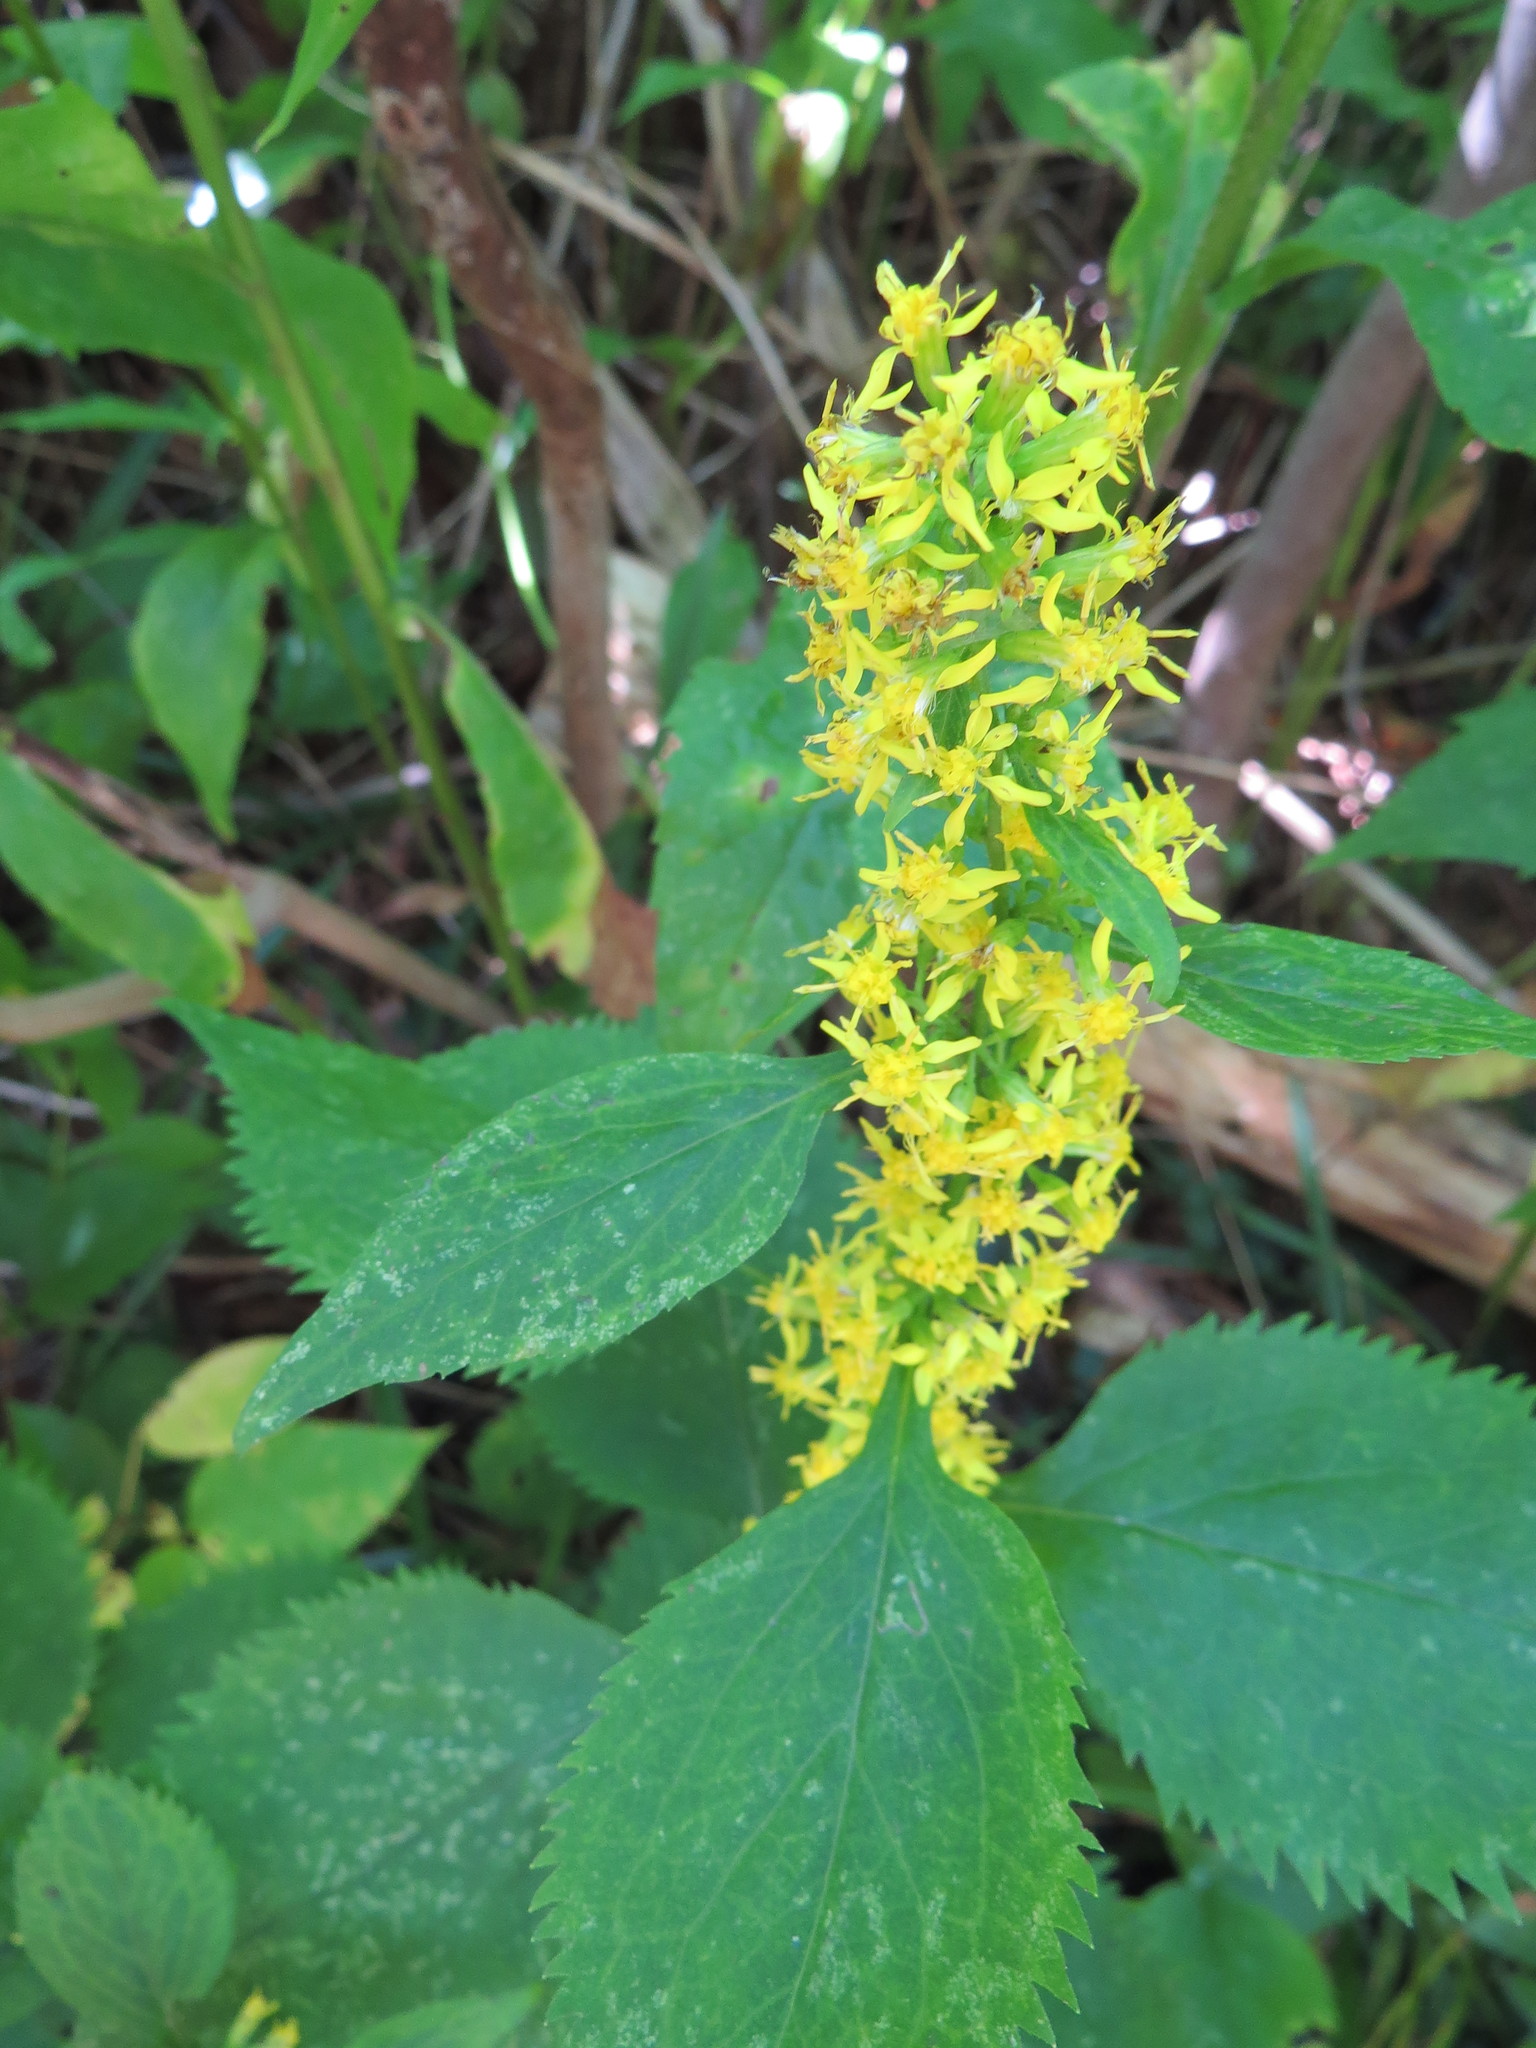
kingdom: Plantae
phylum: Tracheophyta
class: Magnoliopsida
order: Asterales
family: Asteraceae
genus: Solidago
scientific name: Solidago flexicaulis
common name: Zig-zag goldenrod
